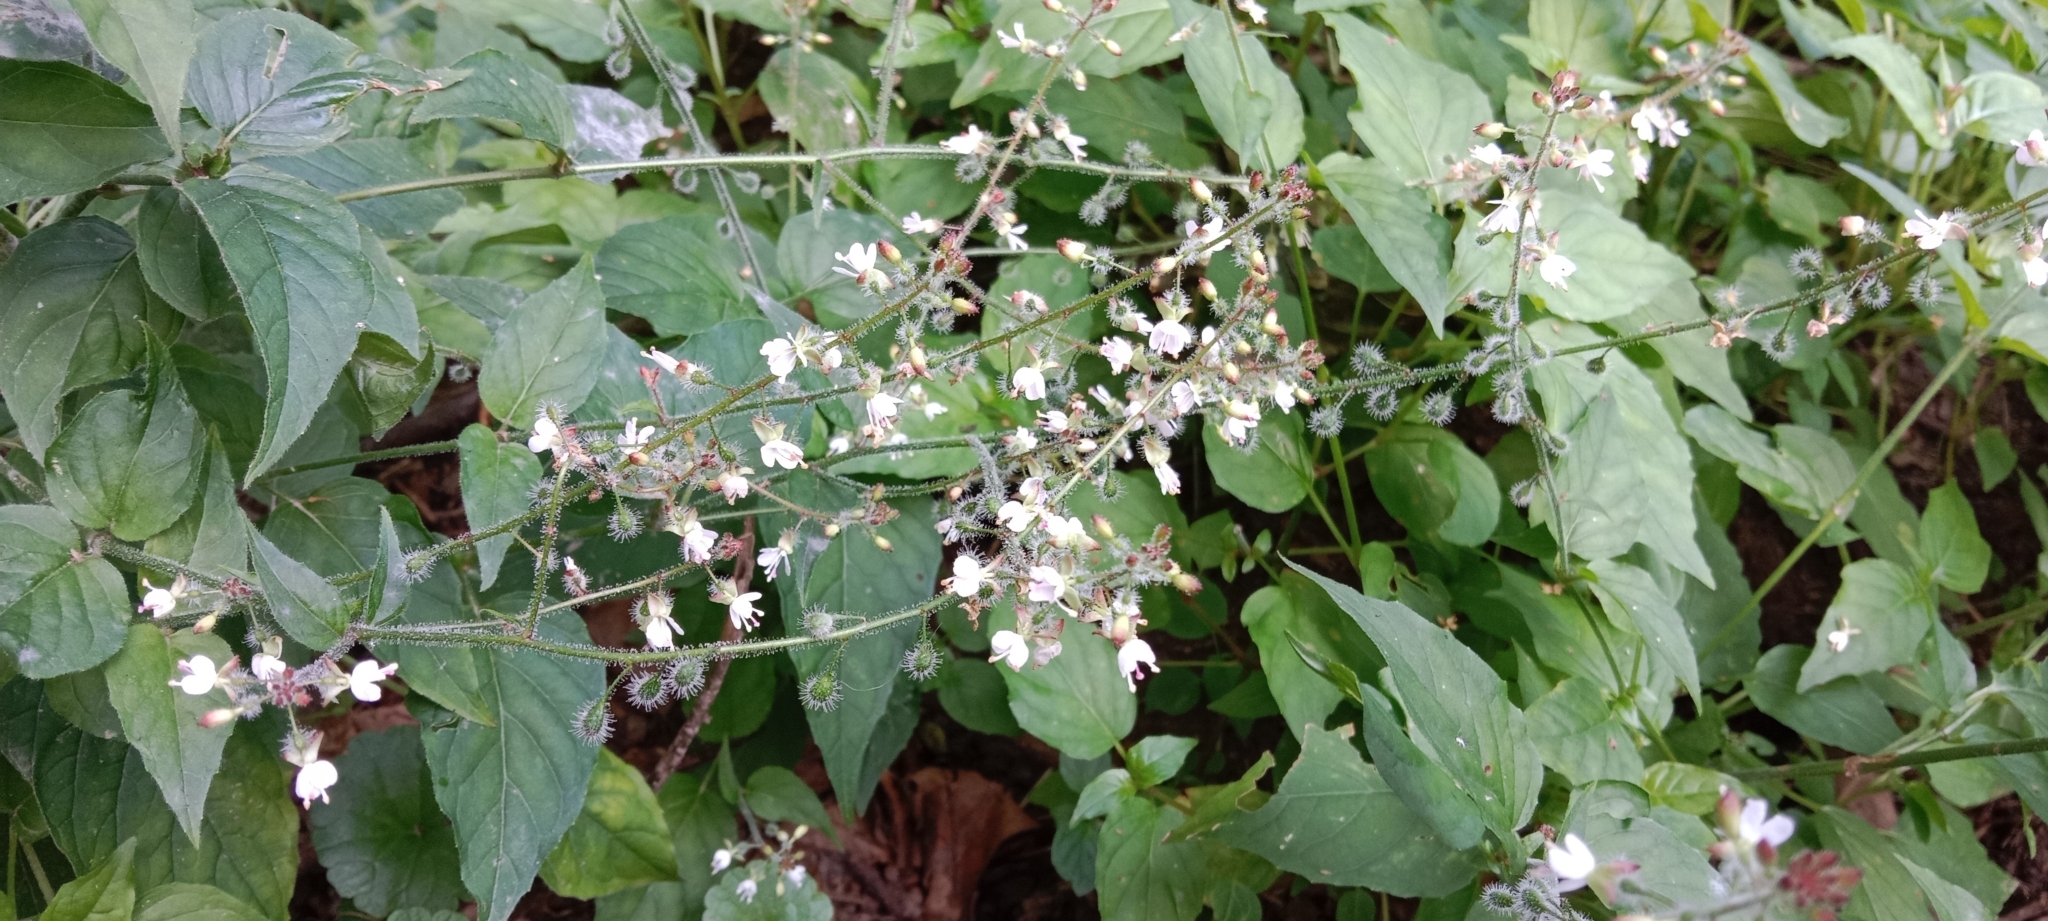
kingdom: Plantae
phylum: Tracheophyta
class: Magnoliopsida
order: Myrtales
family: Onagraceae
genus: Circaea
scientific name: Circaea lutetiana
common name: Enchanter's-nightshade
